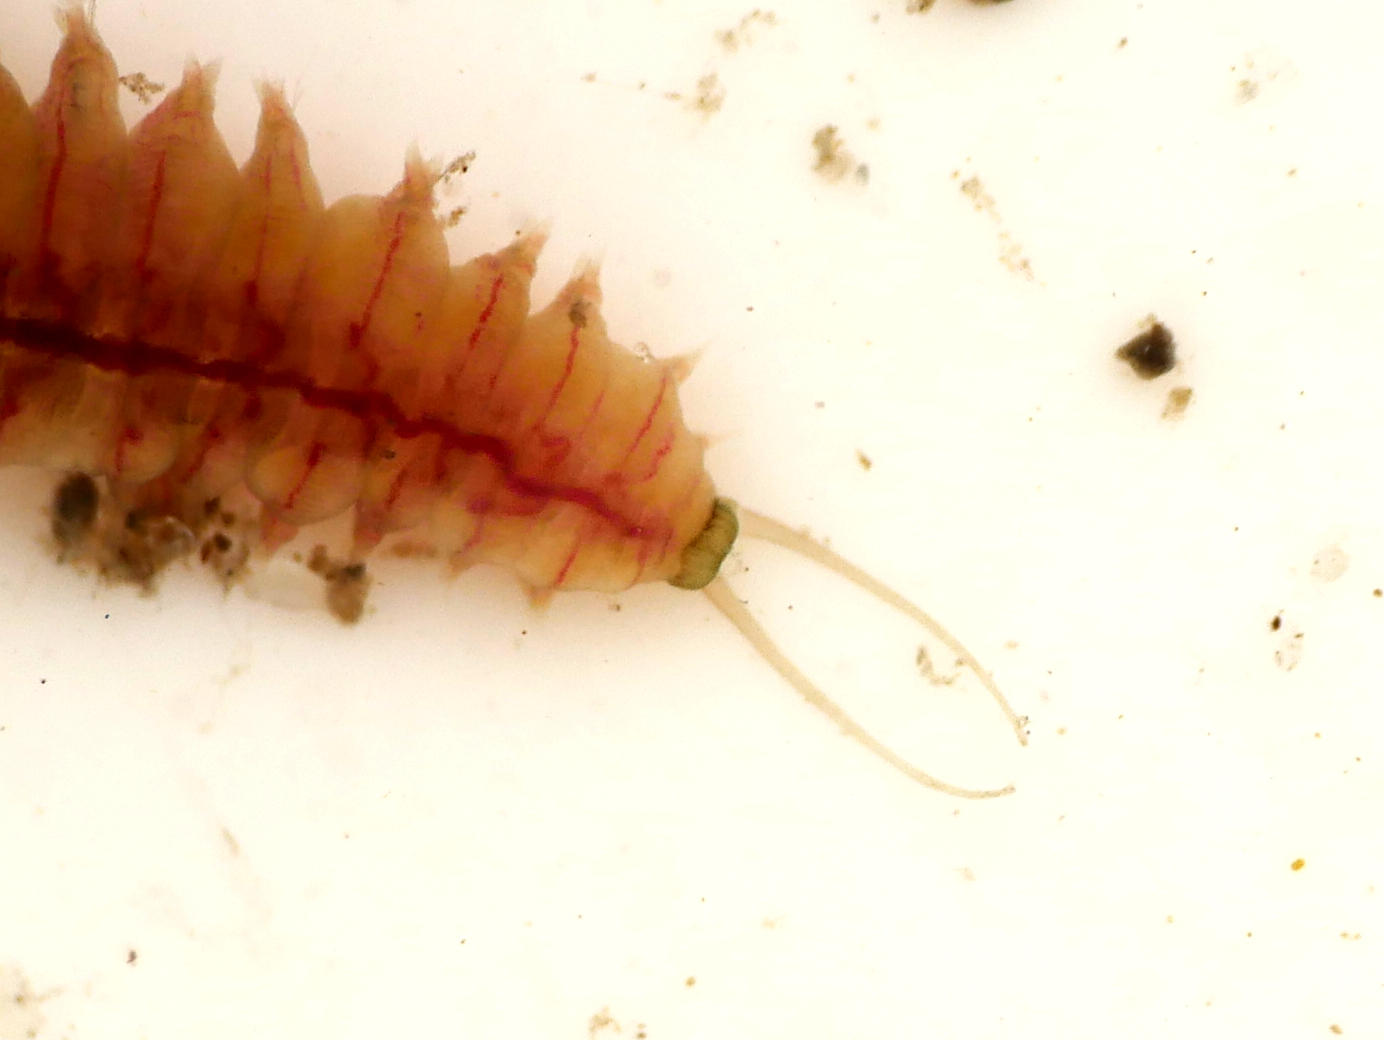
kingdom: Animalia
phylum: Annelida
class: Polychaeta
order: Phyllodocida
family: Nereididae
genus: Hediste
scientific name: Hediste diversicolor
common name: Estuary ragworm
